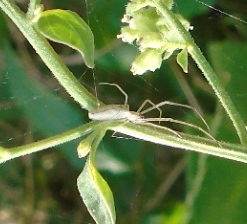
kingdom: Animalia
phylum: Arthropoda
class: Arachnida
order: Araneae
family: Tetragnathidae
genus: Tetragnatha
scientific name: Tetragnatha
